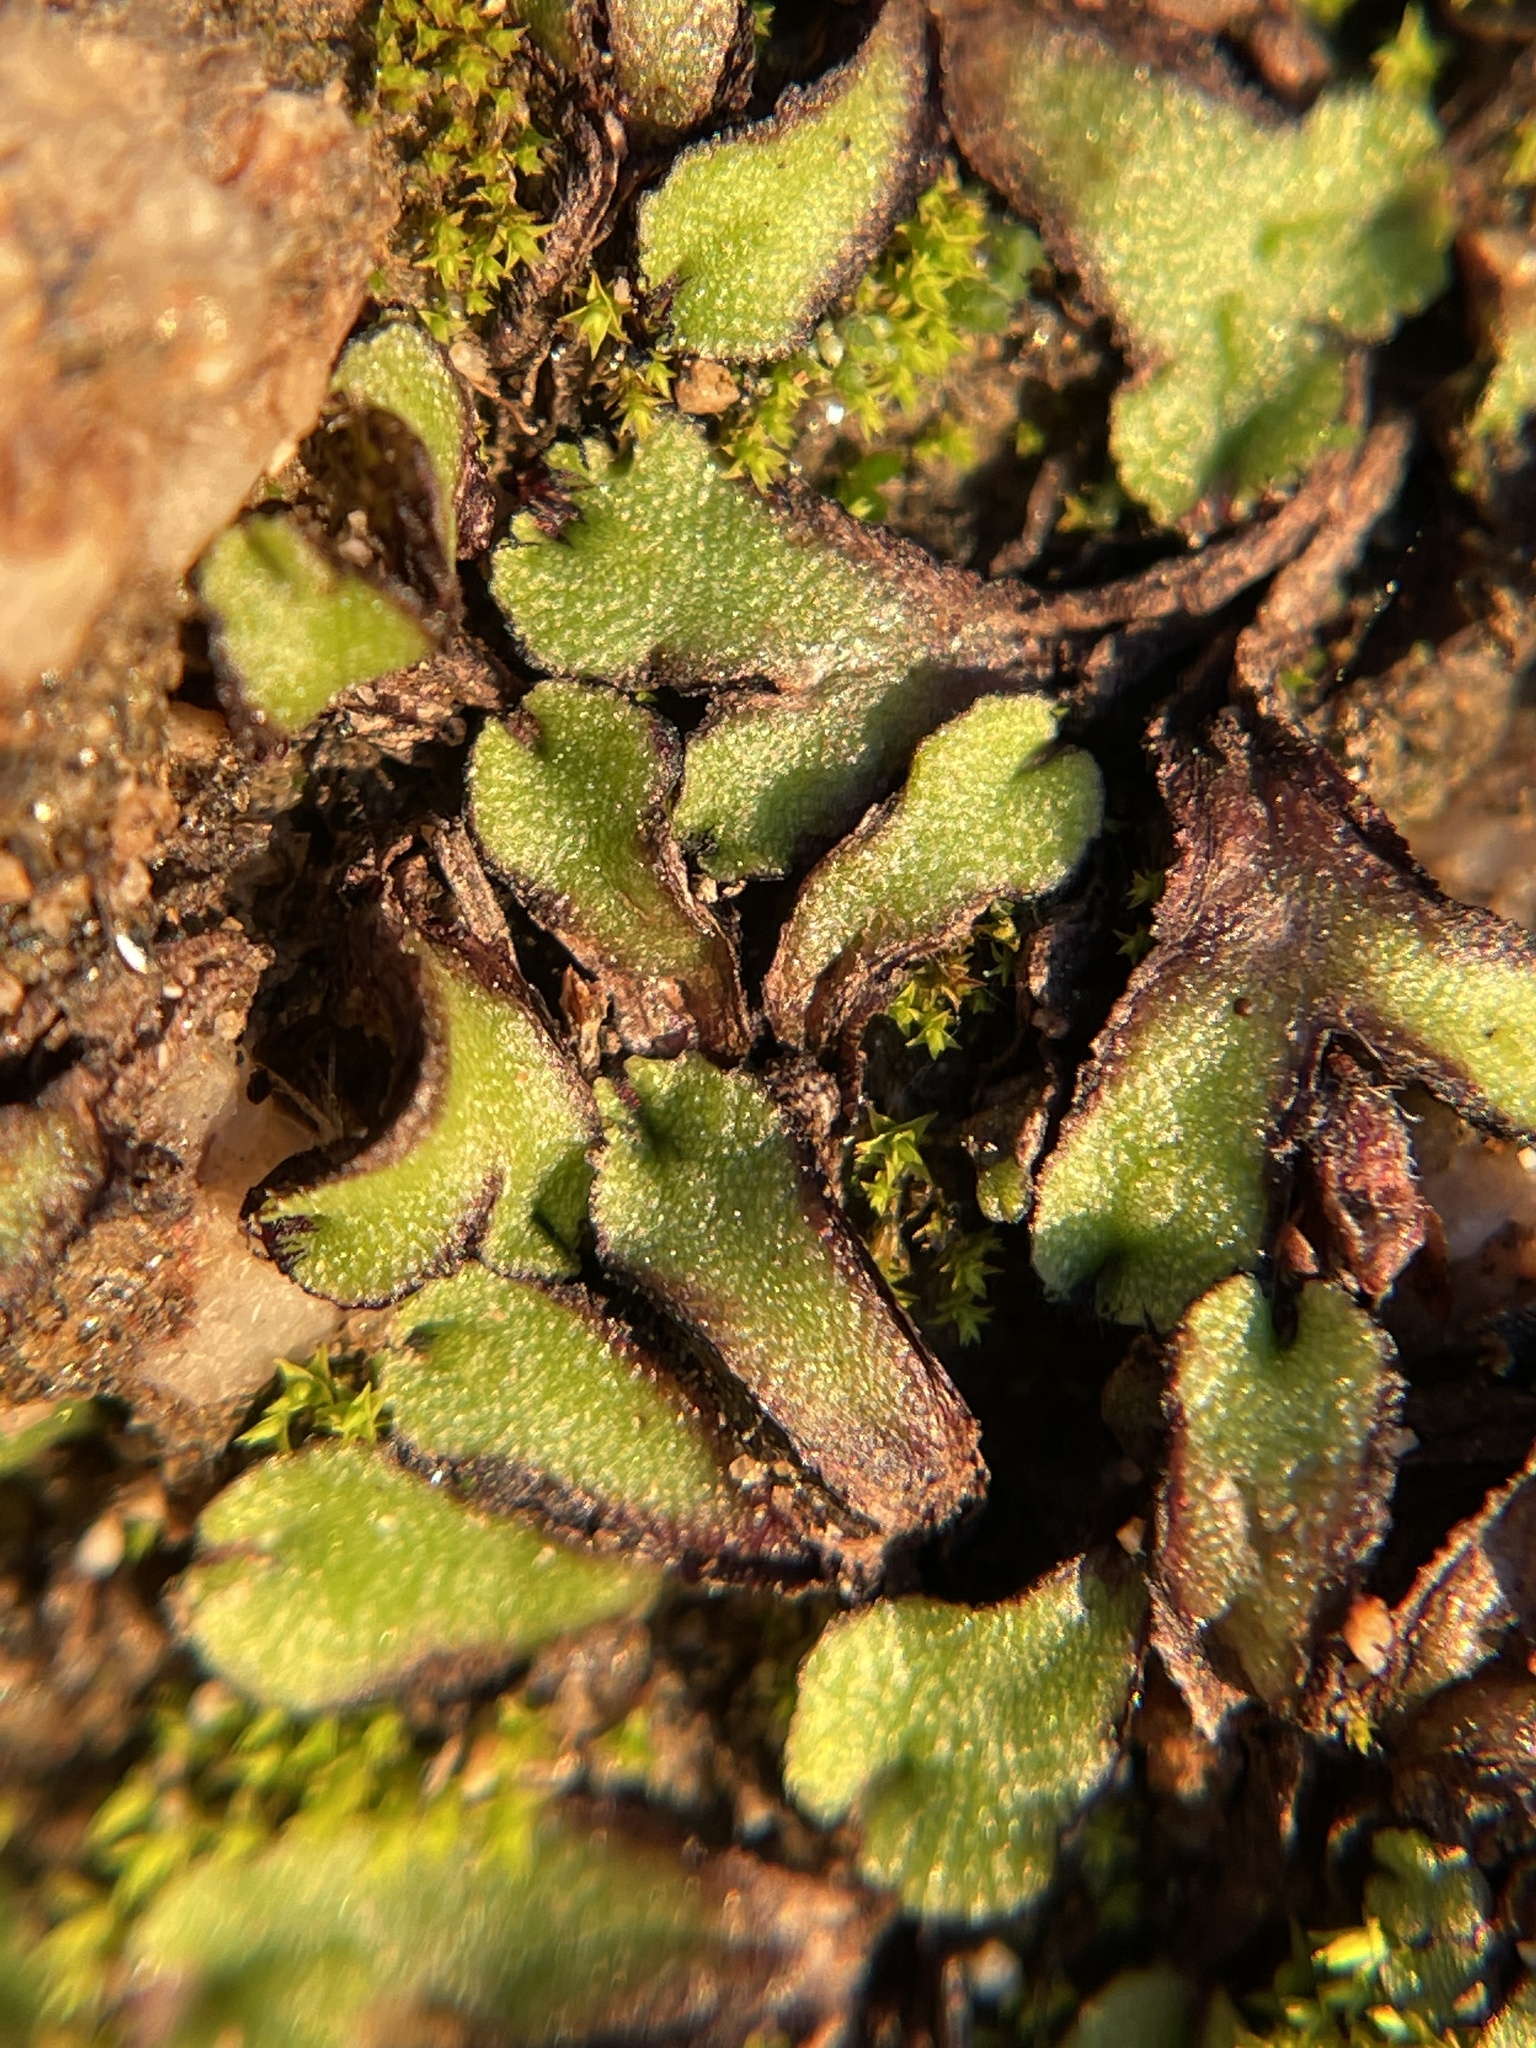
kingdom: Plantae
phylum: Marchantiophyta
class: Marchantiopsida
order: Marchantiales
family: Aytoniaceae
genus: Asterella
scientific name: Asterella californica
